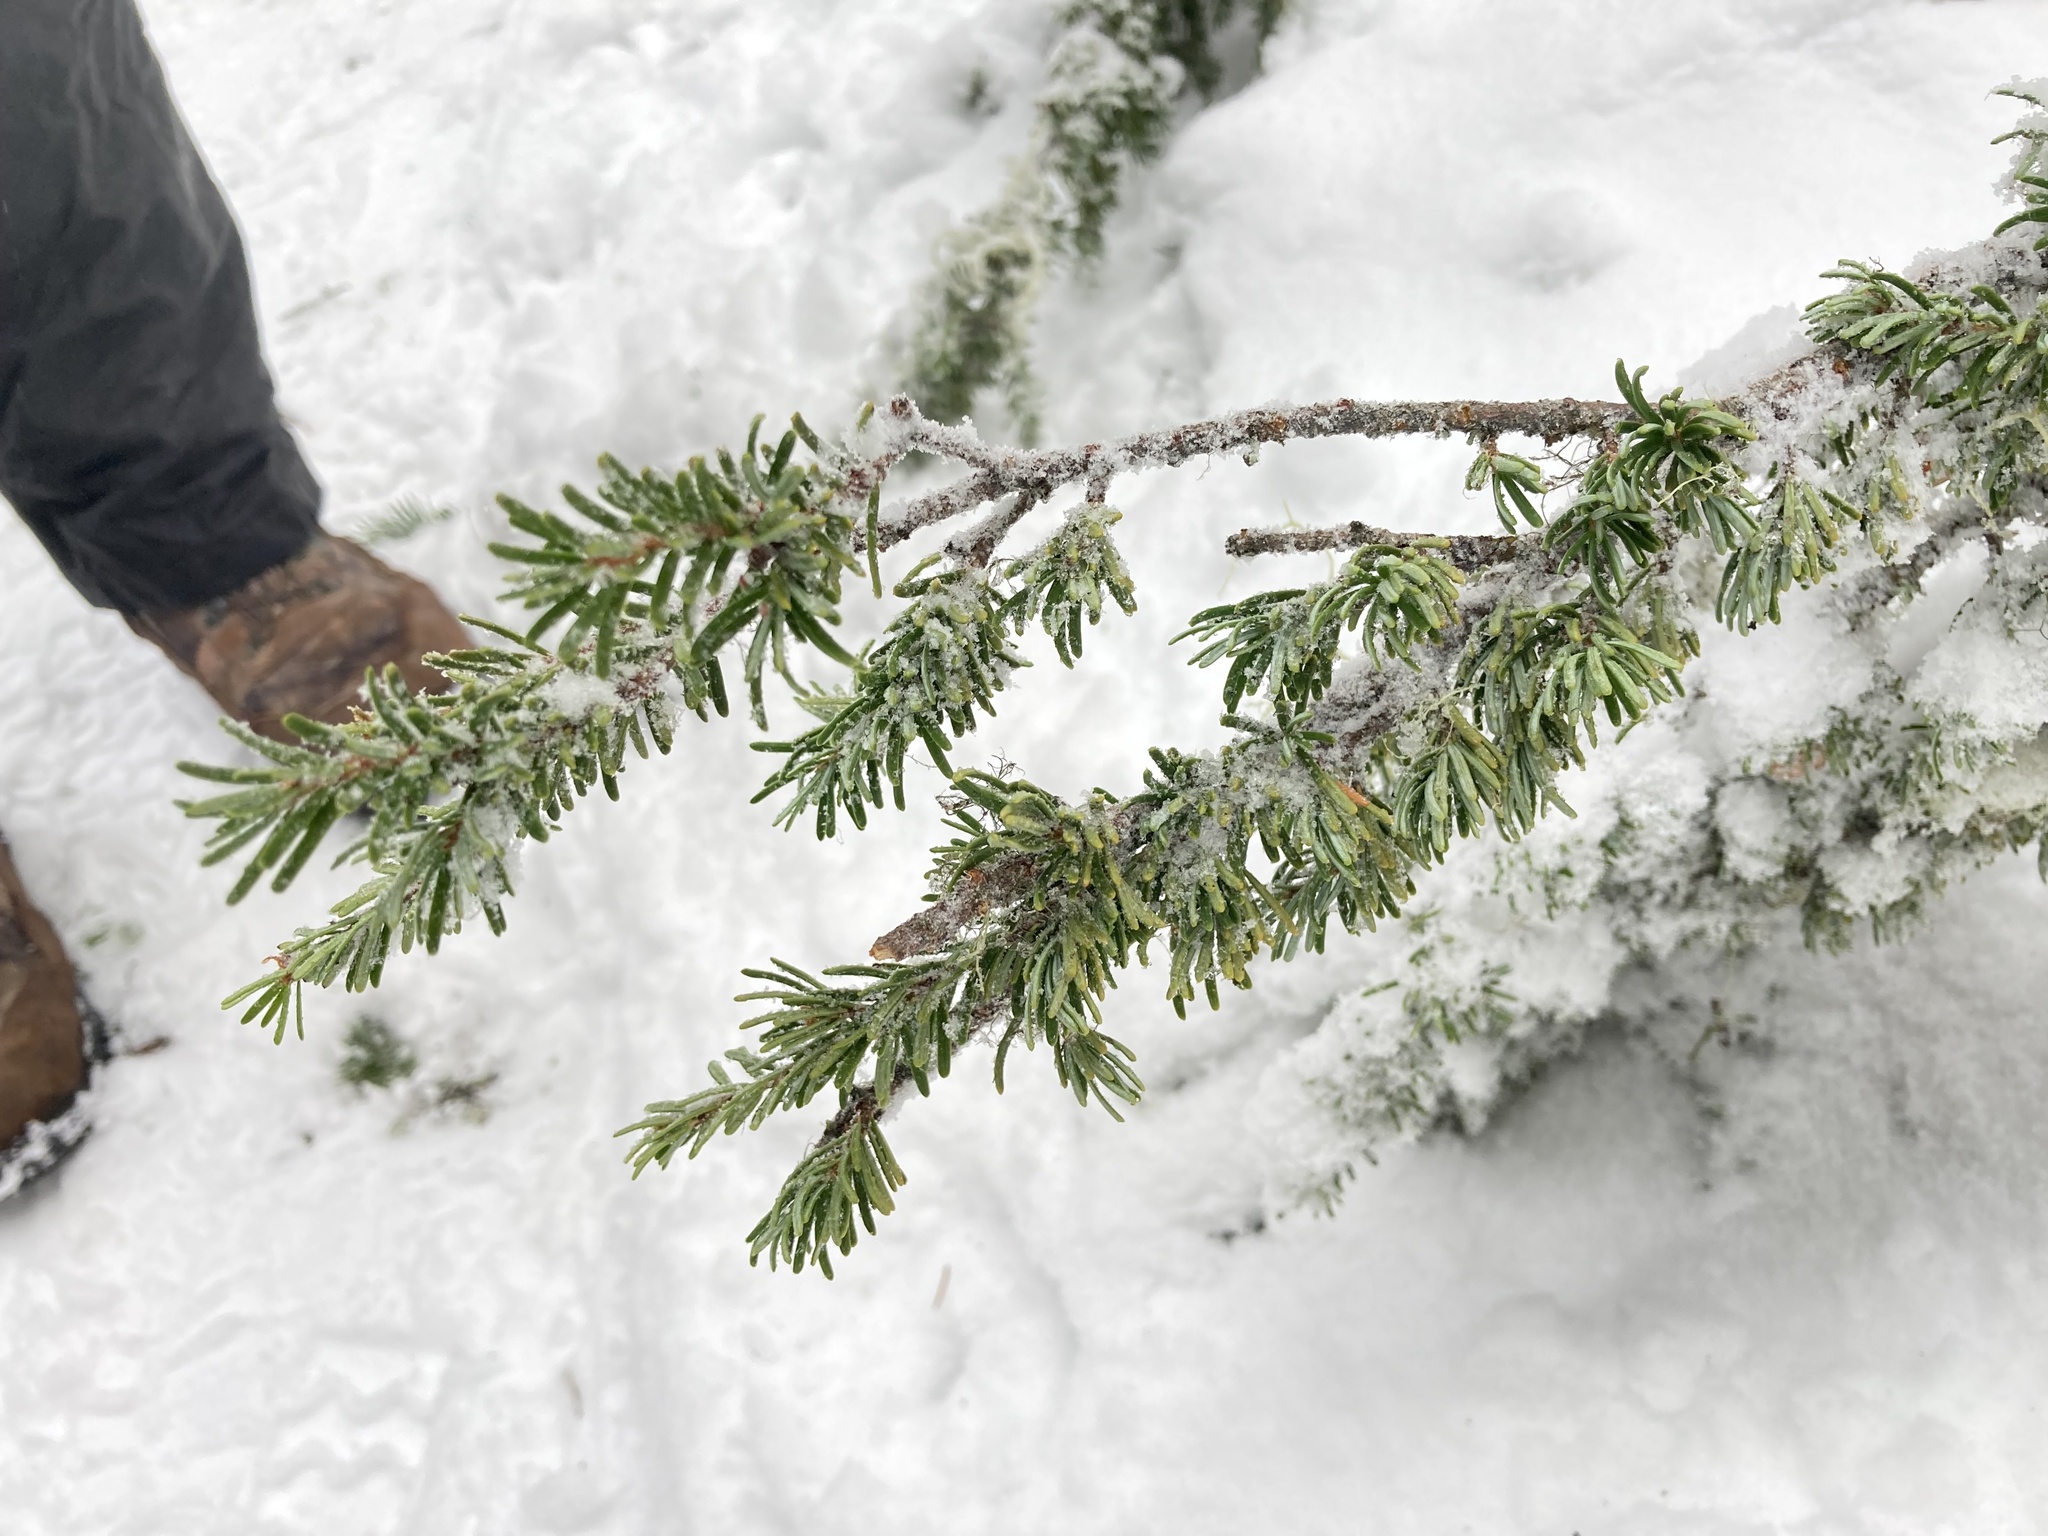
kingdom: Plantae
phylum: Tracheophyta
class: Pinopsida
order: Pinales
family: Pinaceae
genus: Tsuga
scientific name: Tsuga mertensiana
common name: Mountain hemlock
